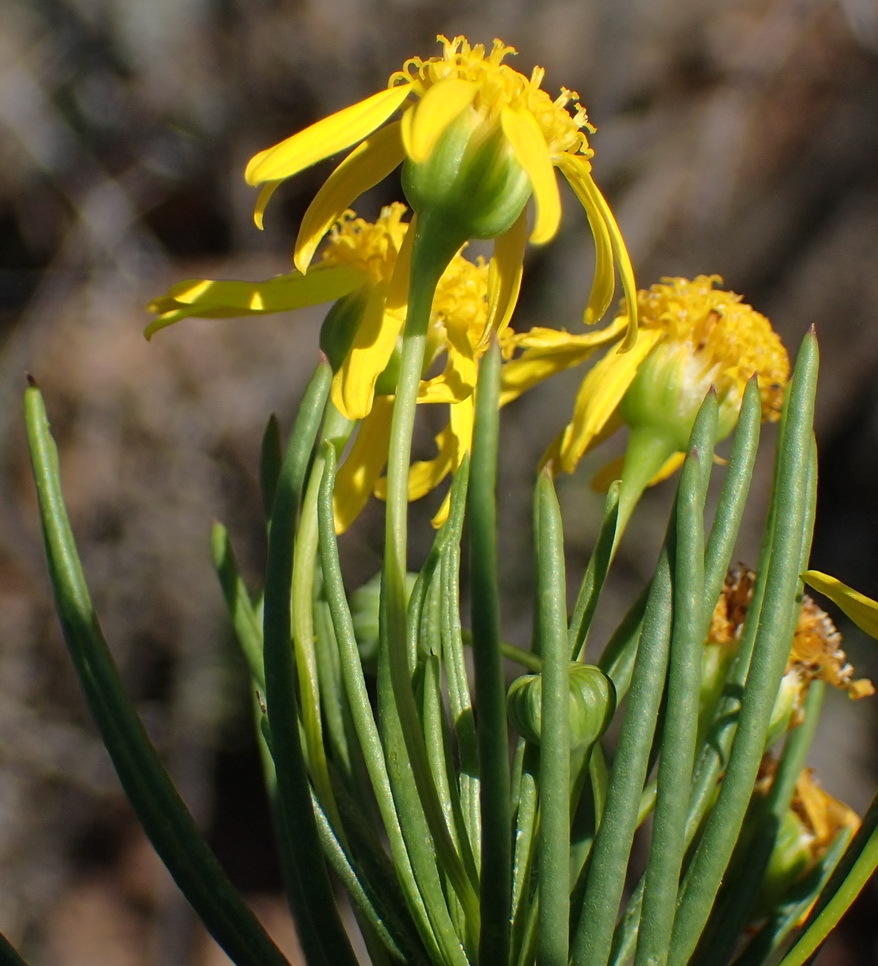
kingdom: Plantae
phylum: Tracheophyta
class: Magnoliopsida
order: Asterales
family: Asteraceae
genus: Euryops
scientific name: Euryops rehmannii
